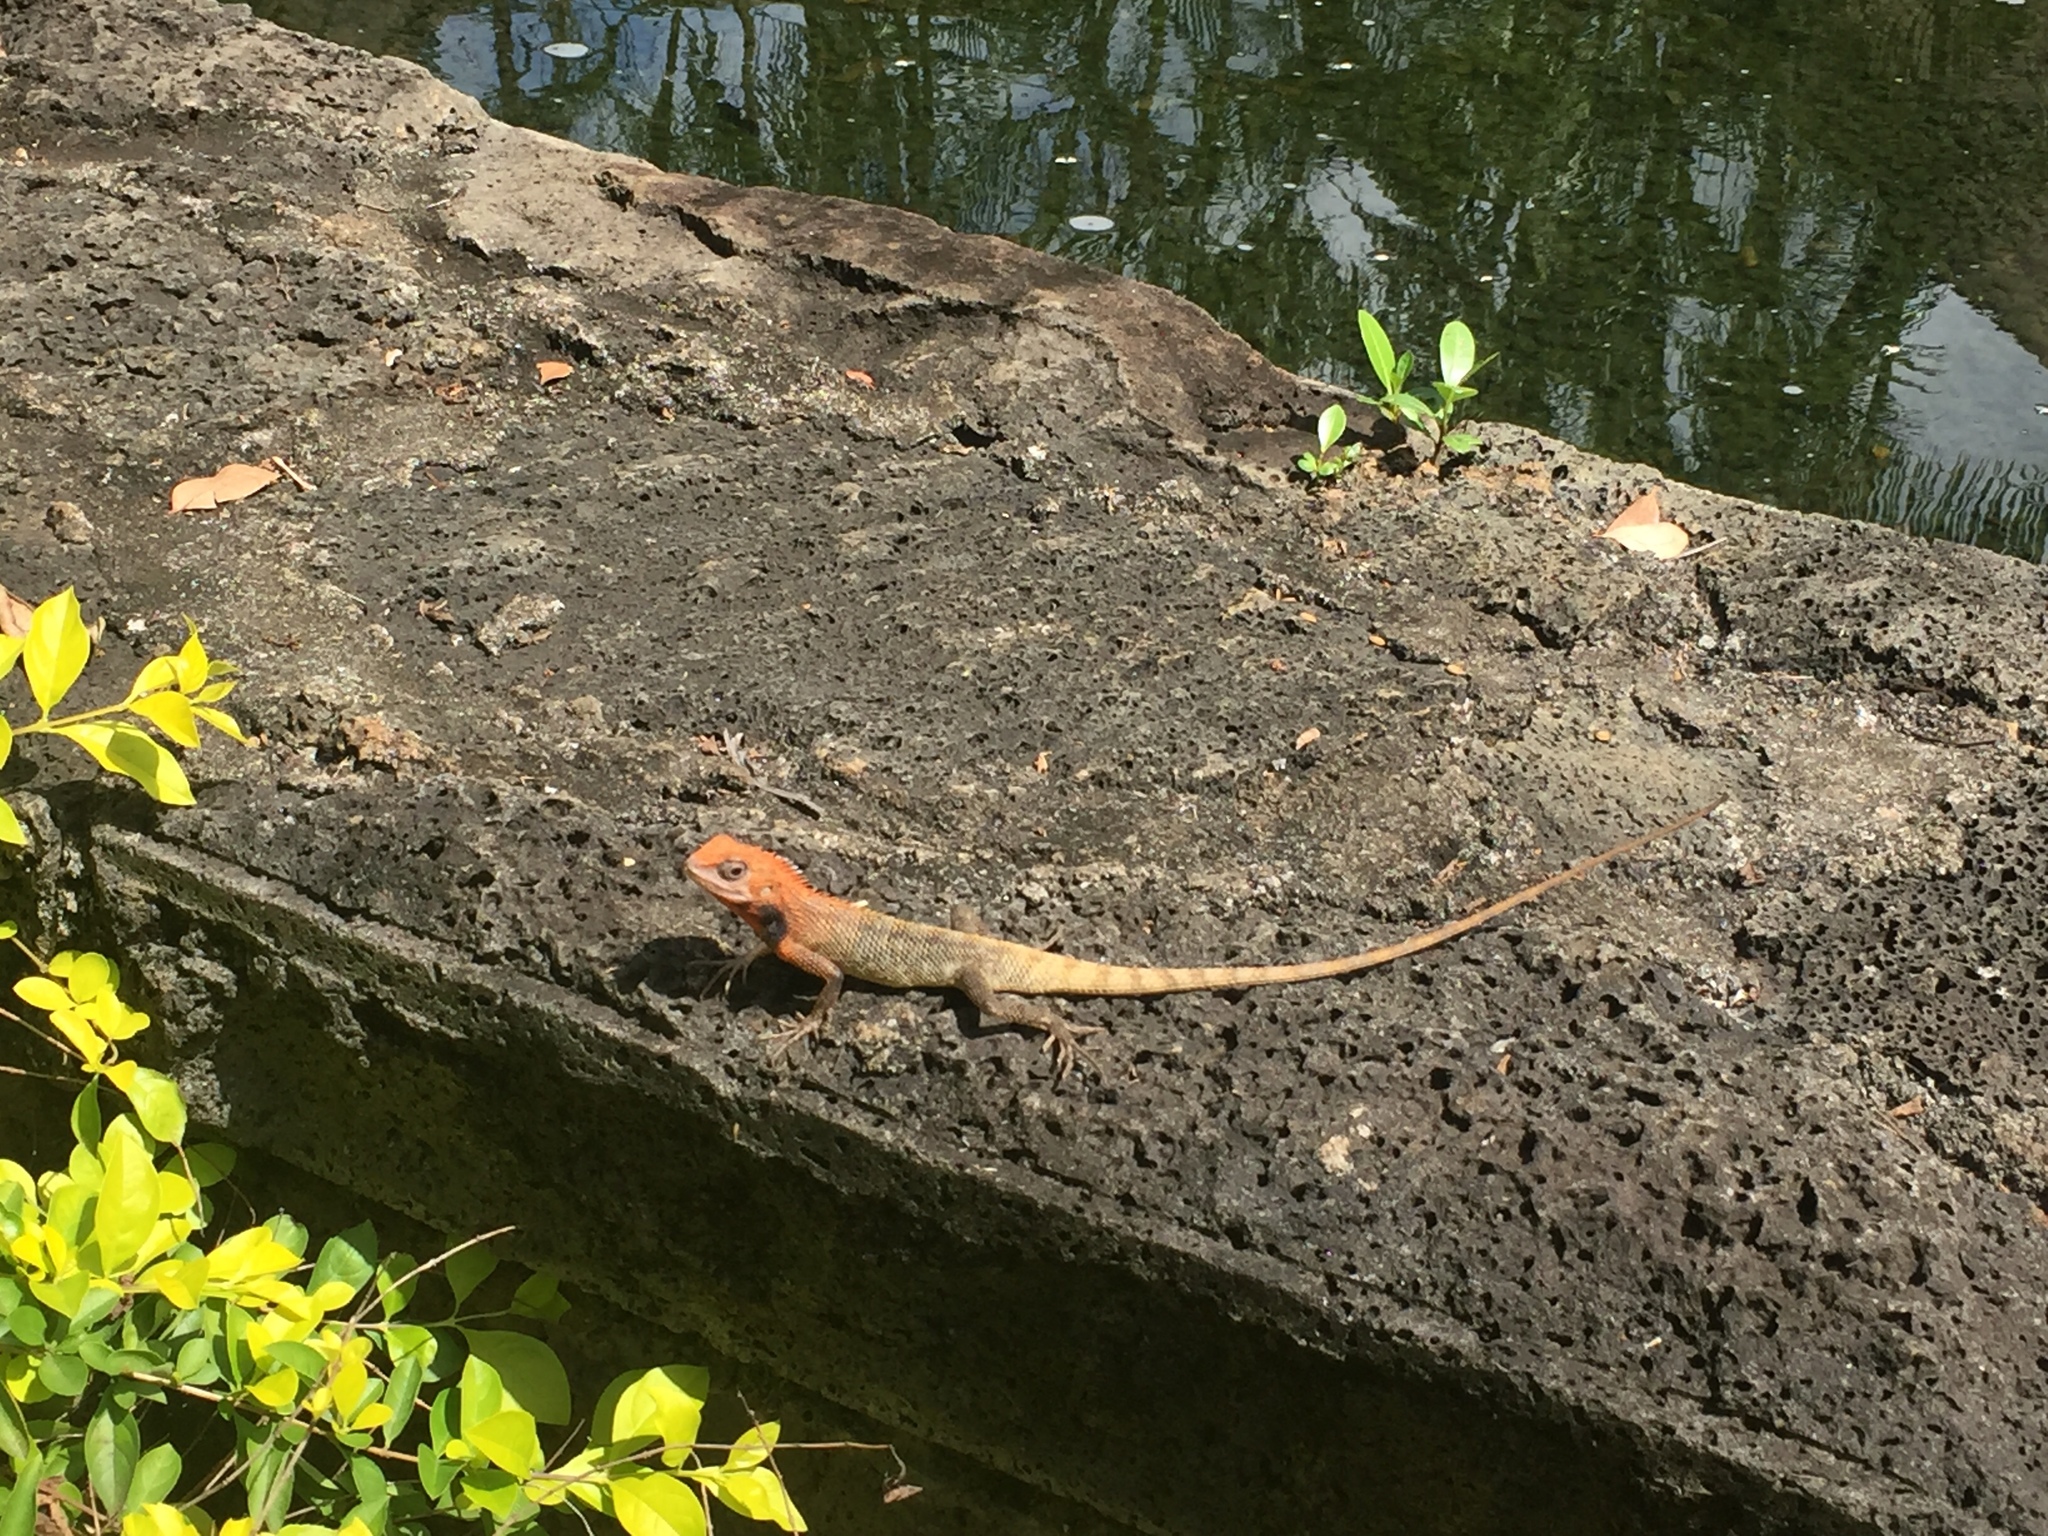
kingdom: Animalia
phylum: Chordata
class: Squamata
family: Agamidae
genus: Calotes
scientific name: Calotes versicolor
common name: Oriental garden lizard
